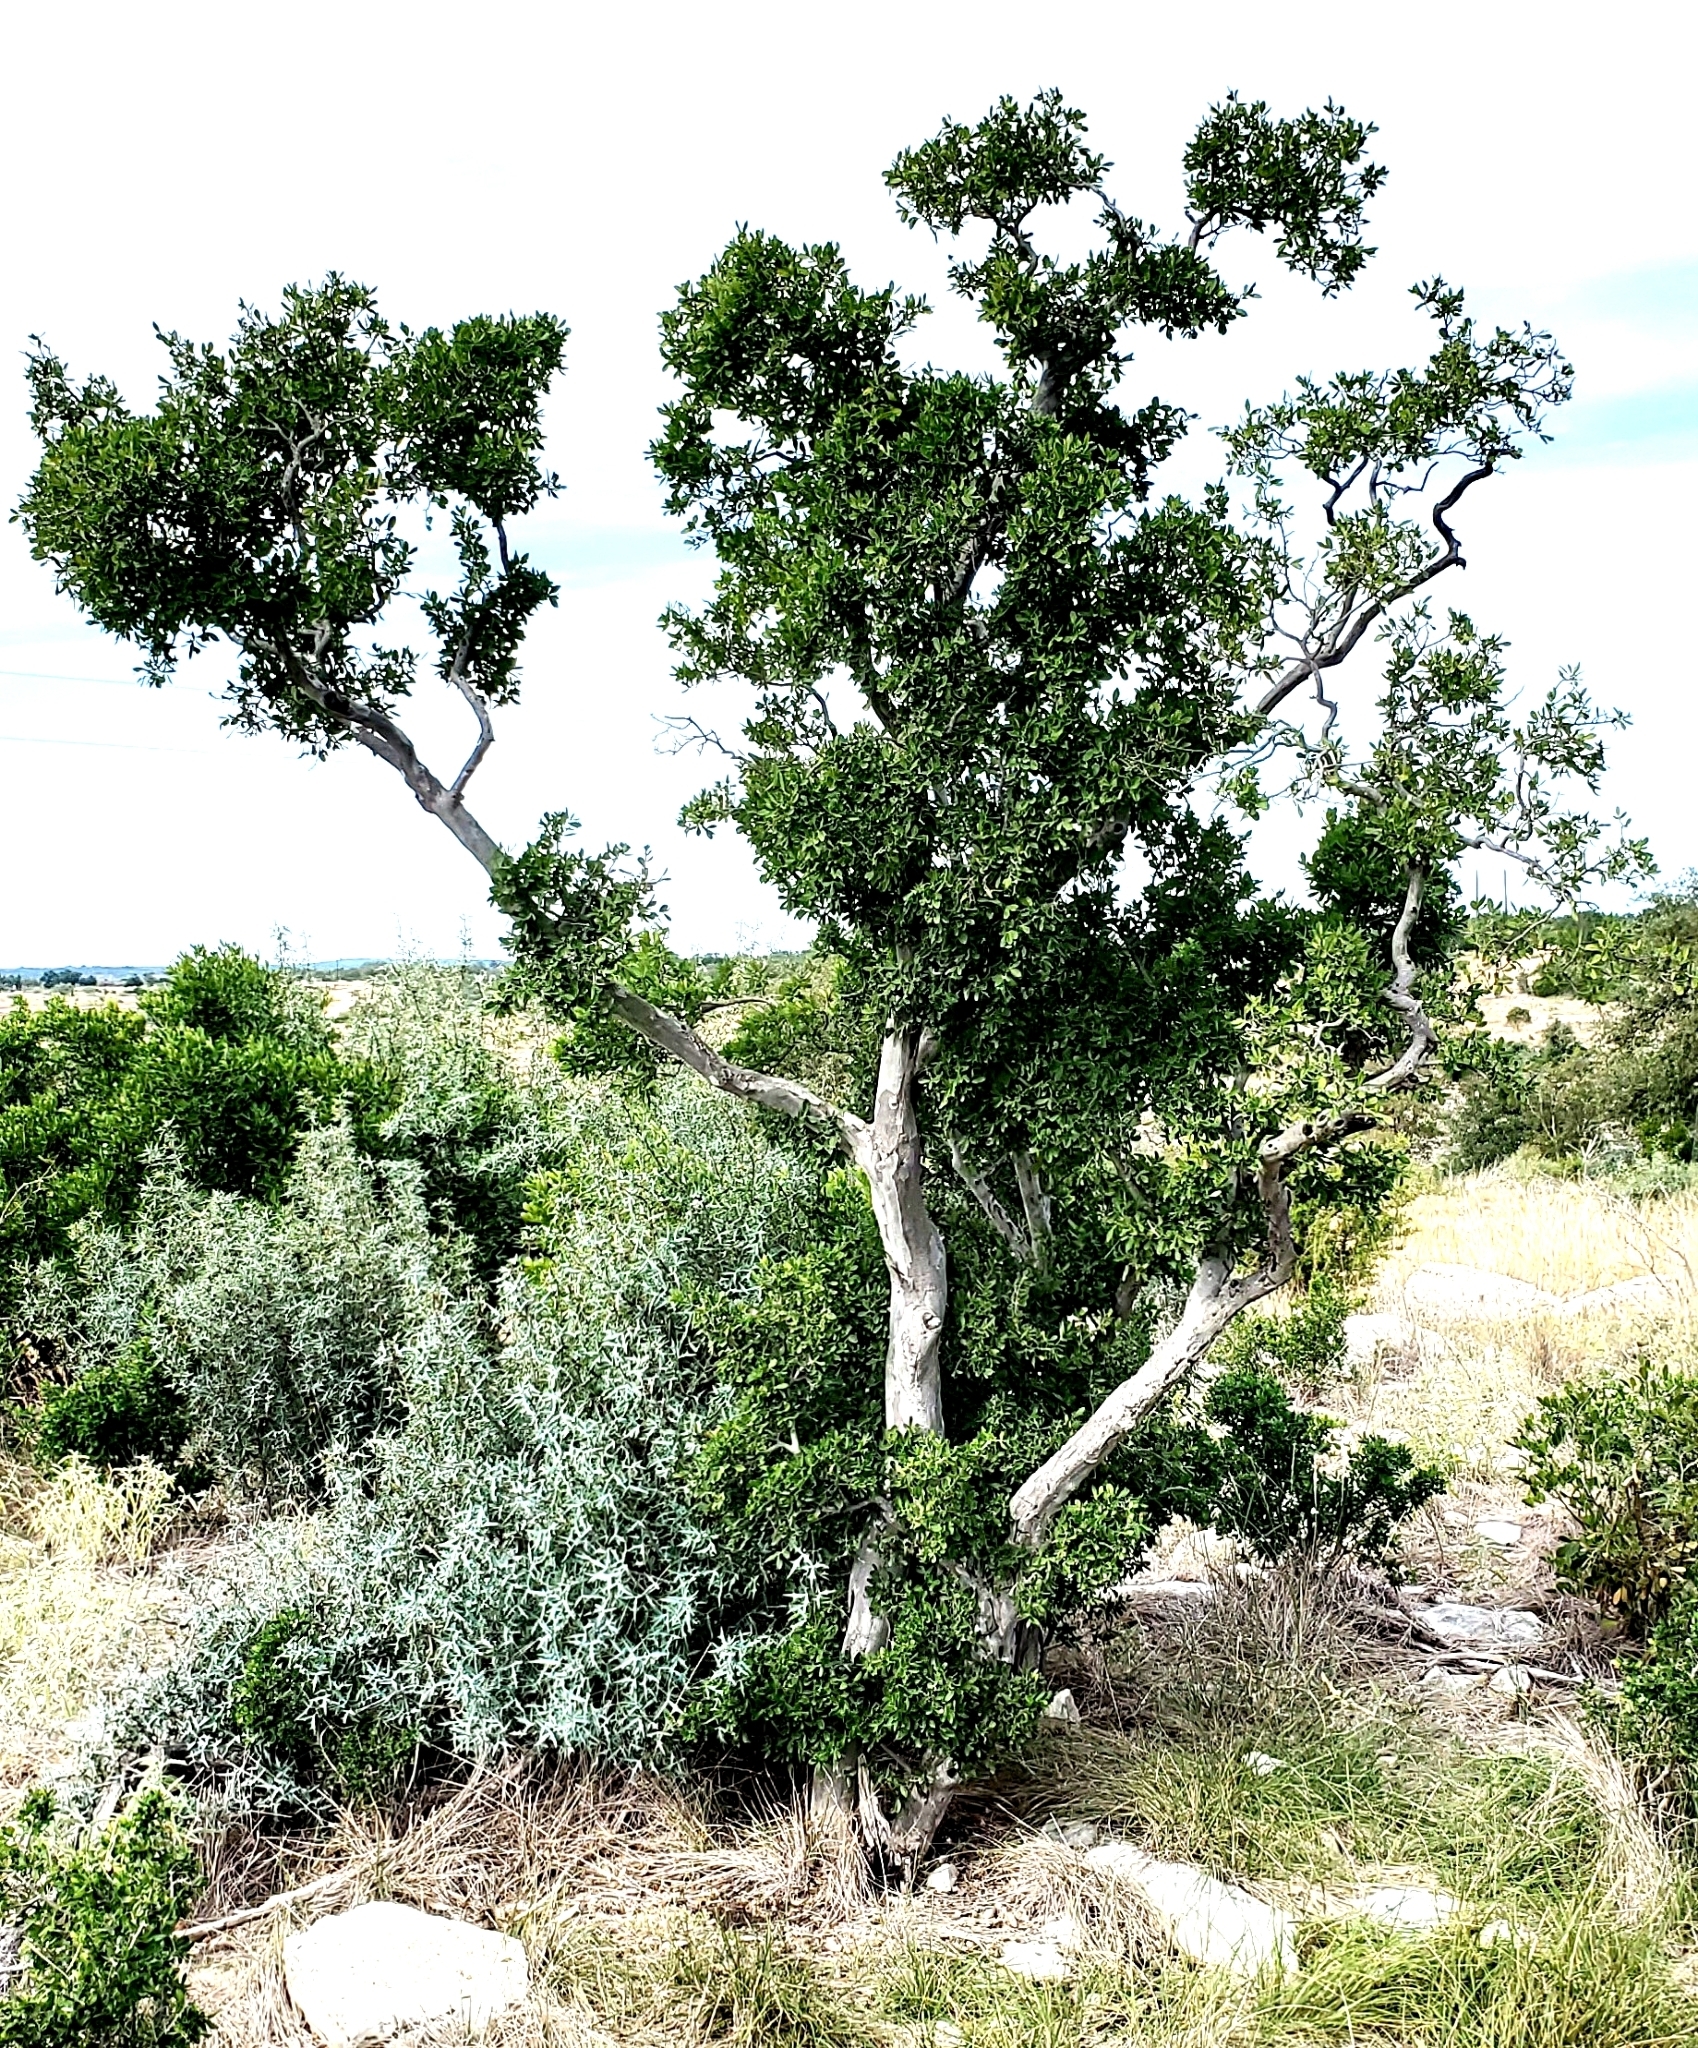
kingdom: Plantae
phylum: Tracheophyta
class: Magnoliopsida
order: Ericales
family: Ebenaceae
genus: Diospyros
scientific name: Diospyros texana
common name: Texas persimmon
